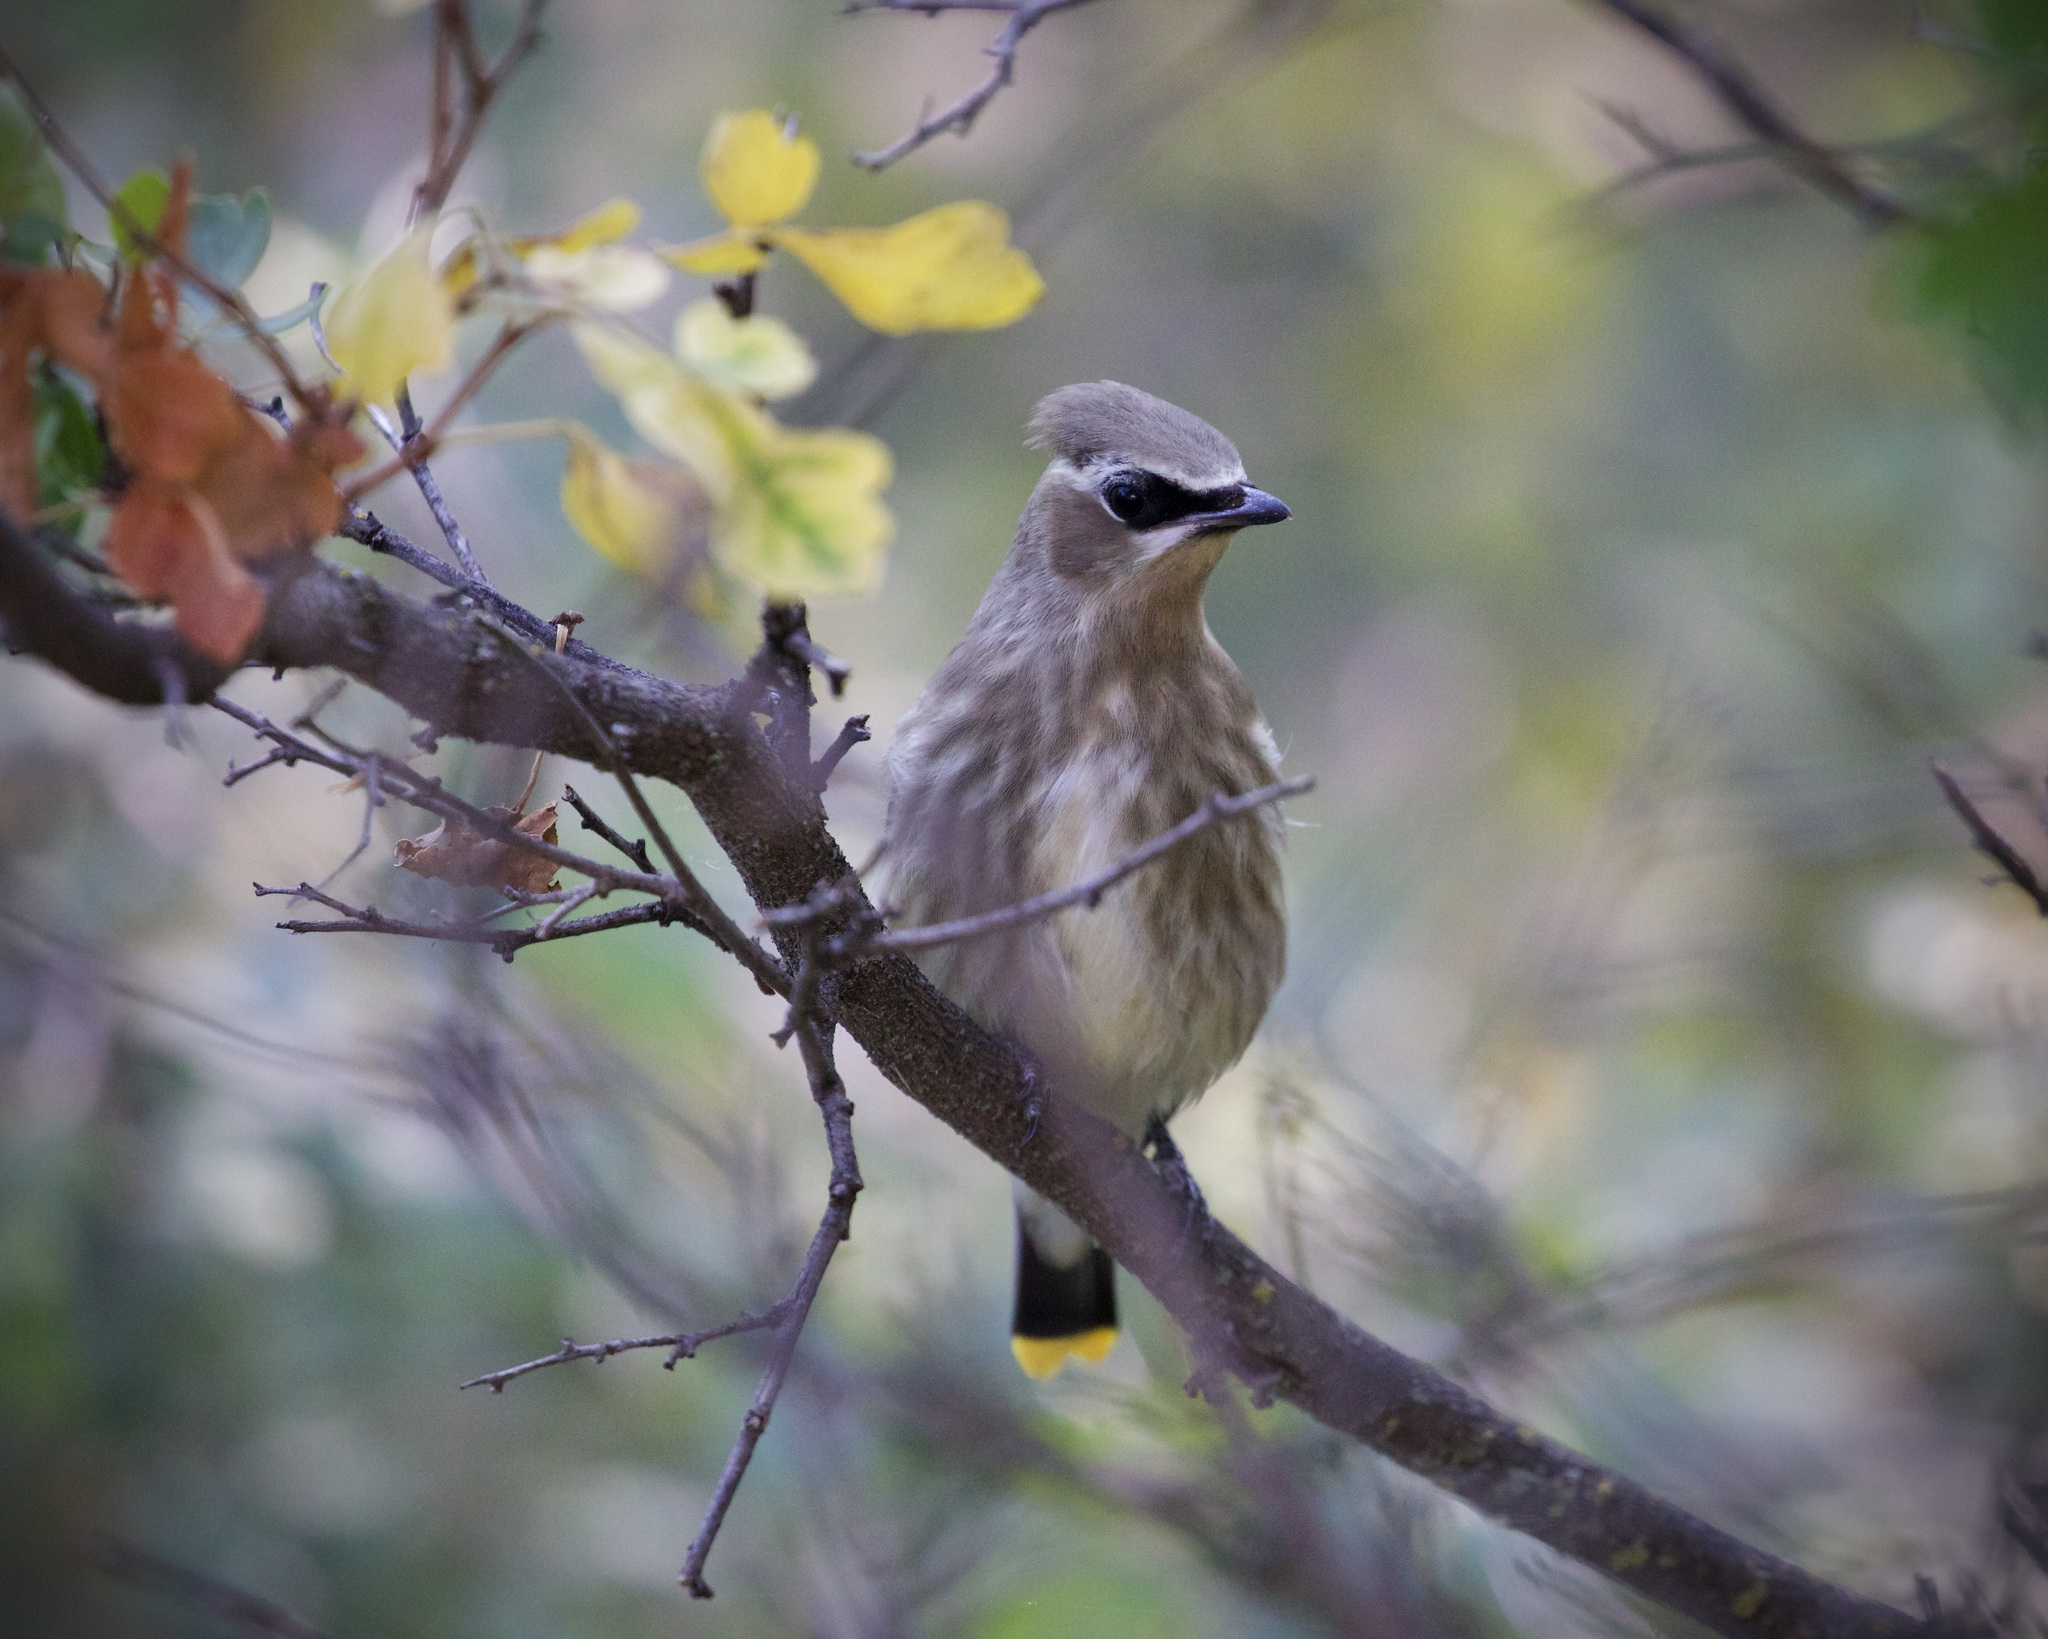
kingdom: Animalia
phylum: Chordata
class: Aves
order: Passeriformes
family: Bombycillidae
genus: Bombycilla
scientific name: Bombycilla cedrorum
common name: Cedar waxwing
